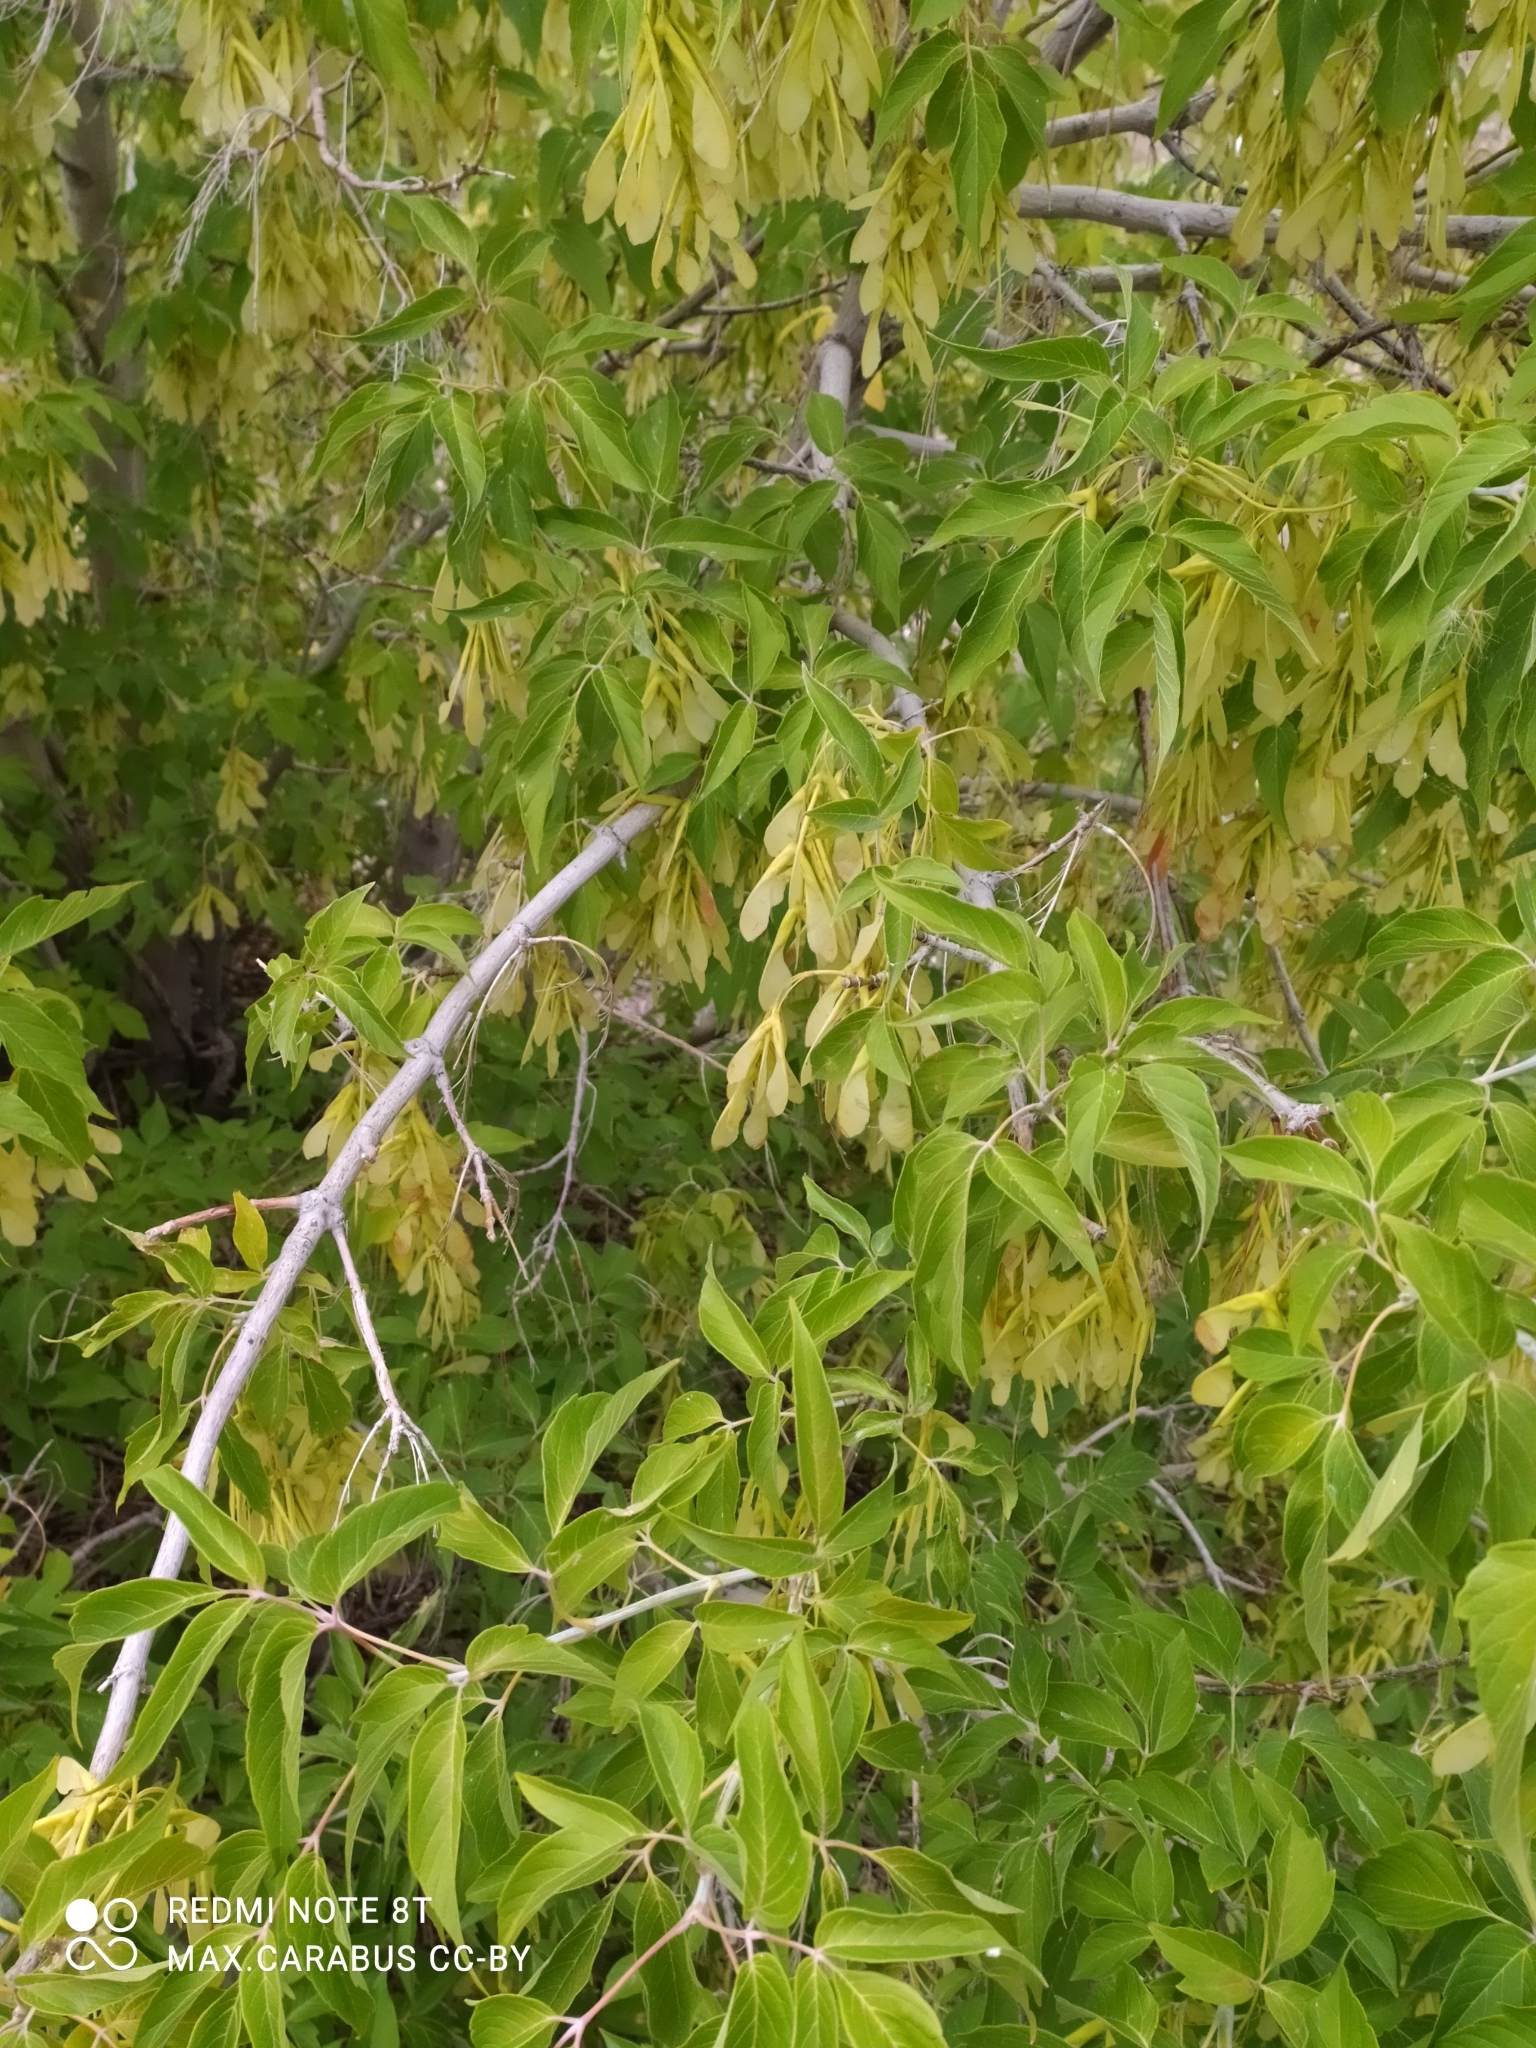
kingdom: Plantae
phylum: Tracheophyta
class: Magnoliopsida
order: Sapindales
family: Sapindaceae
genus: Acer
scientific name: Acer negundo
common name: Ashleaf maple
